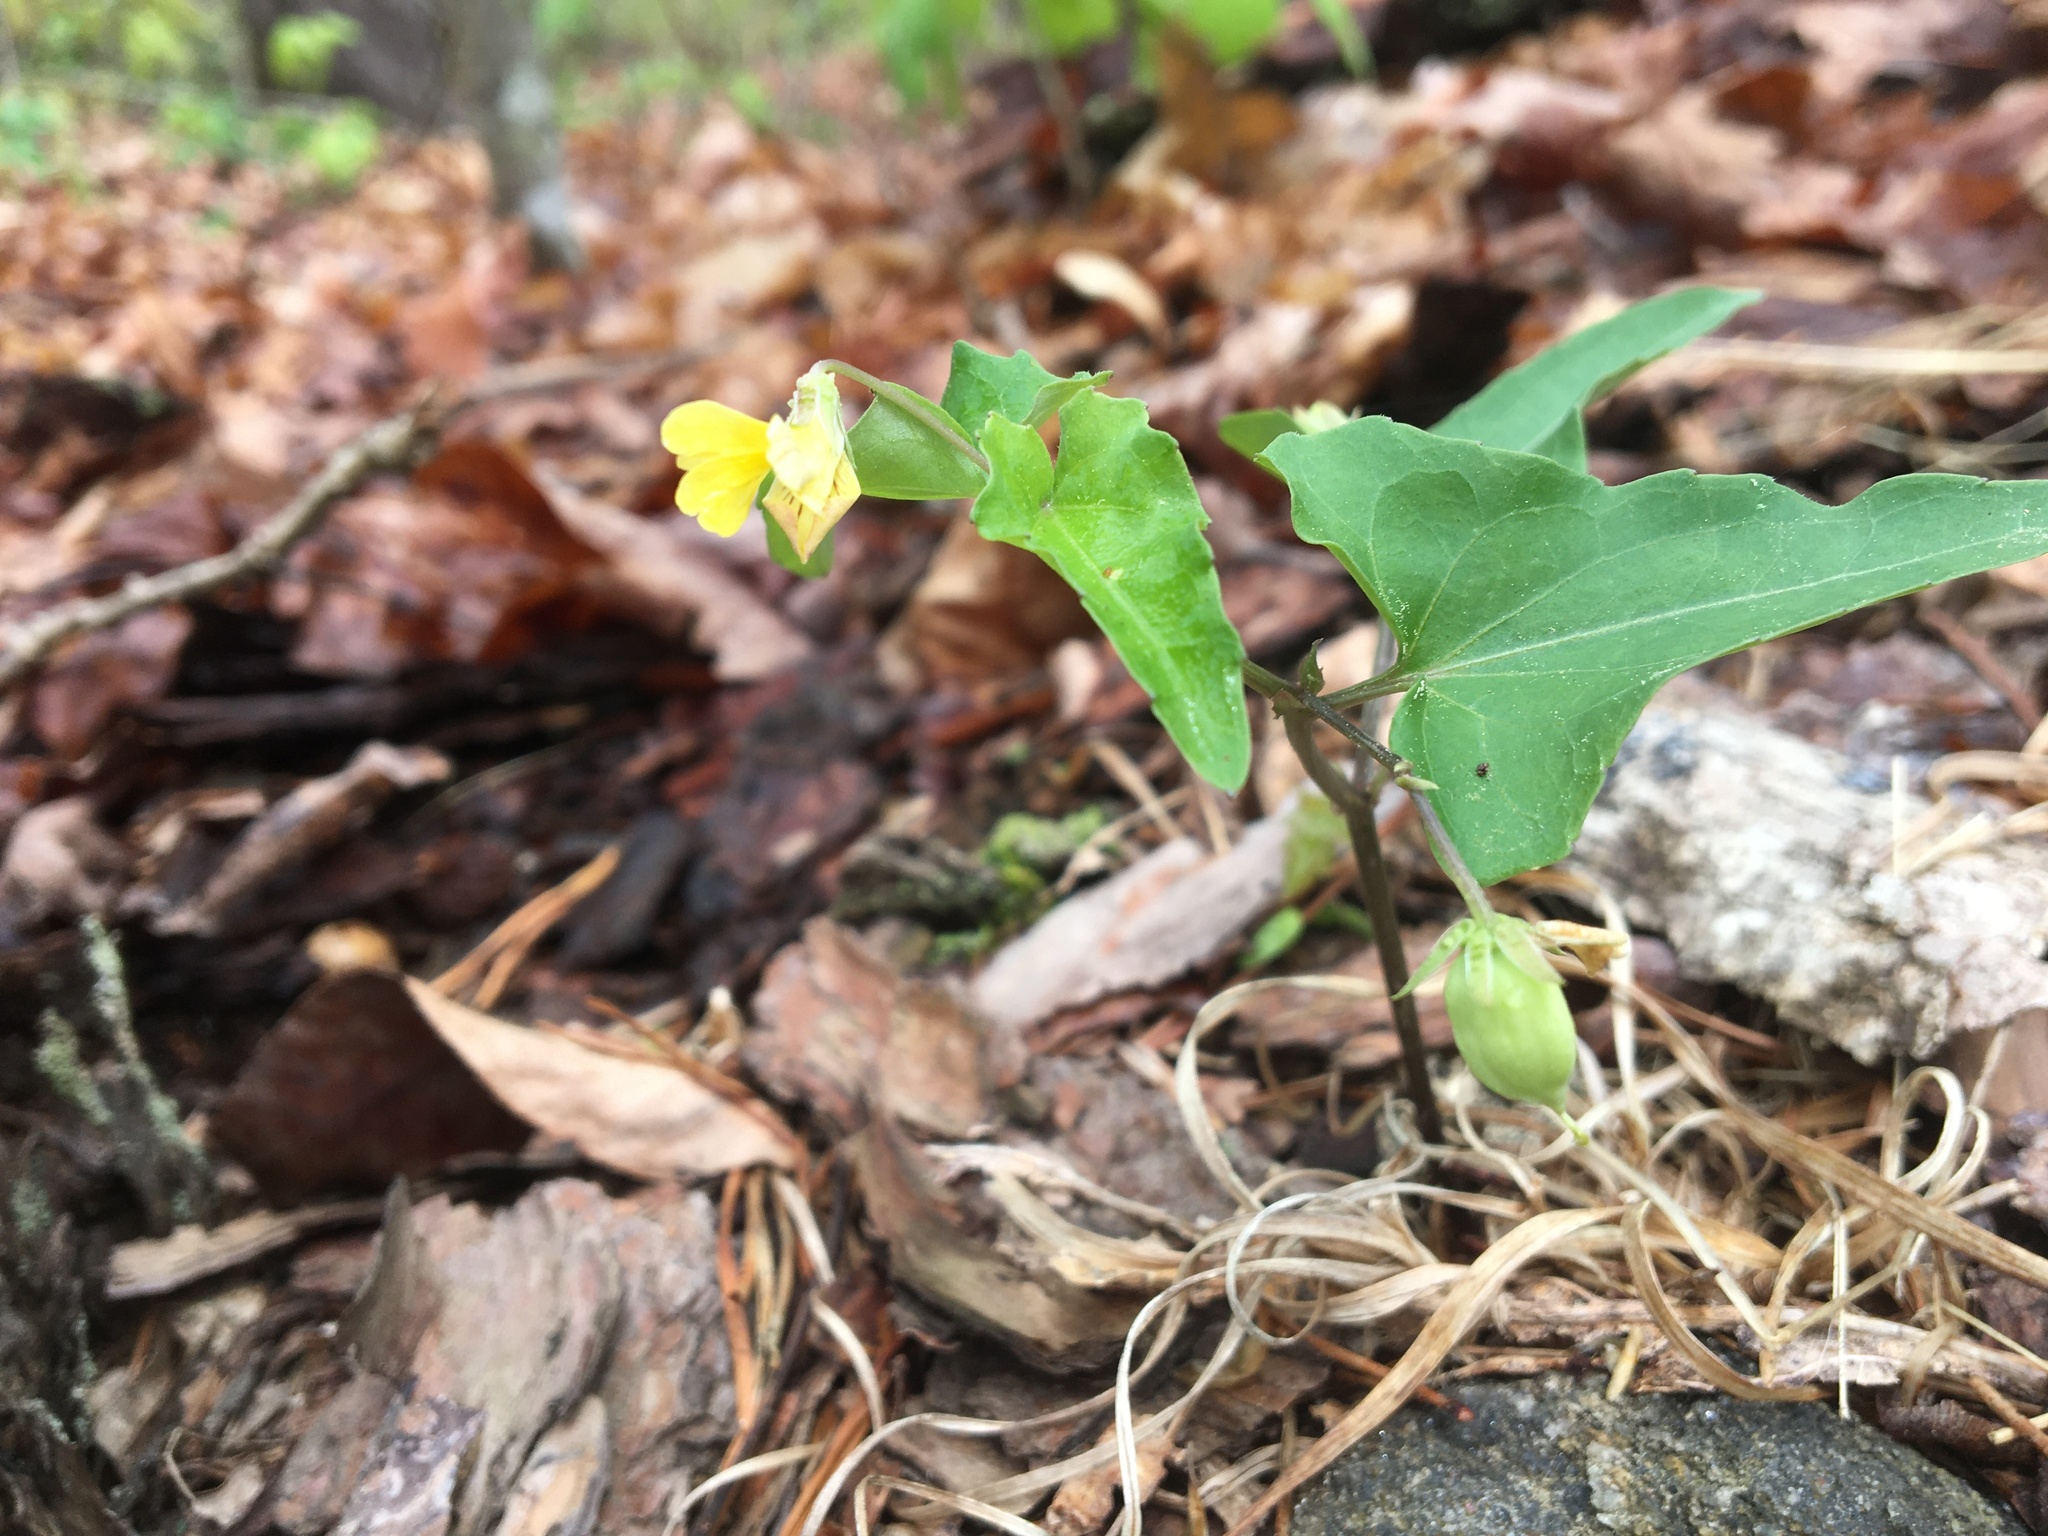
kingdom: Plantae
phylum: Tracheophyta
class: Magnoliopsida
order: Malpighiales
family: Violaceae
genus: Viola
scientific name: Viola hastata
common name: Spear-leaf violet
